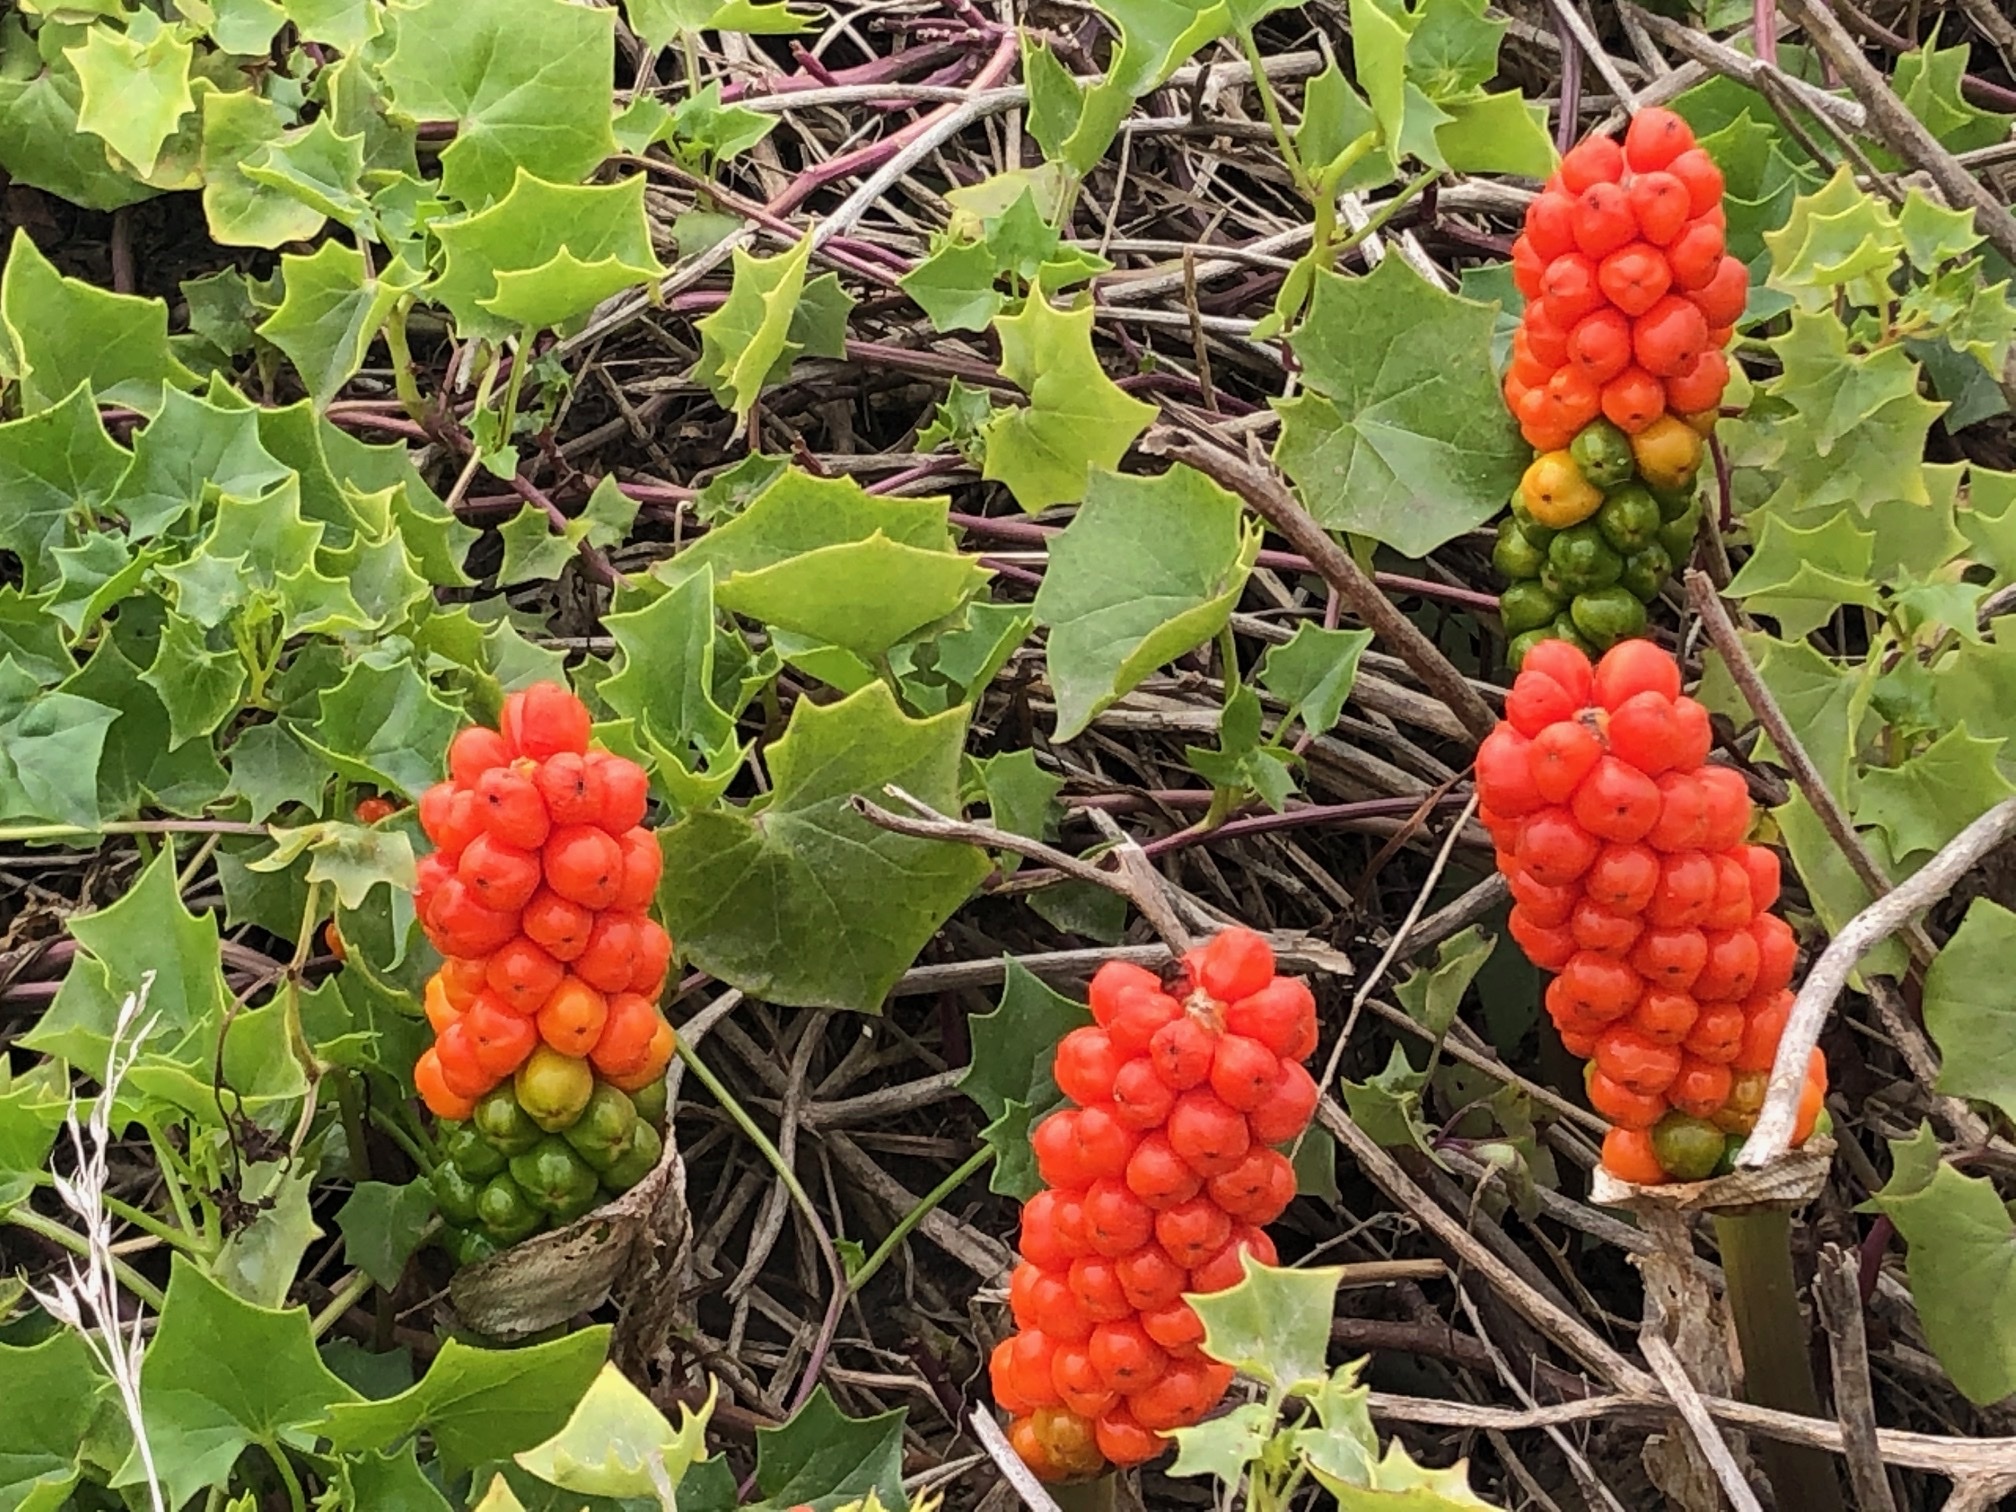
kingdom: Plantae
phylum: Tracheophyta
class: Liliopsida
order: Alismatales
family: Araceae
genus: Arum
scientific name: Arum italicum
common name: Italian lords-and-ladies
